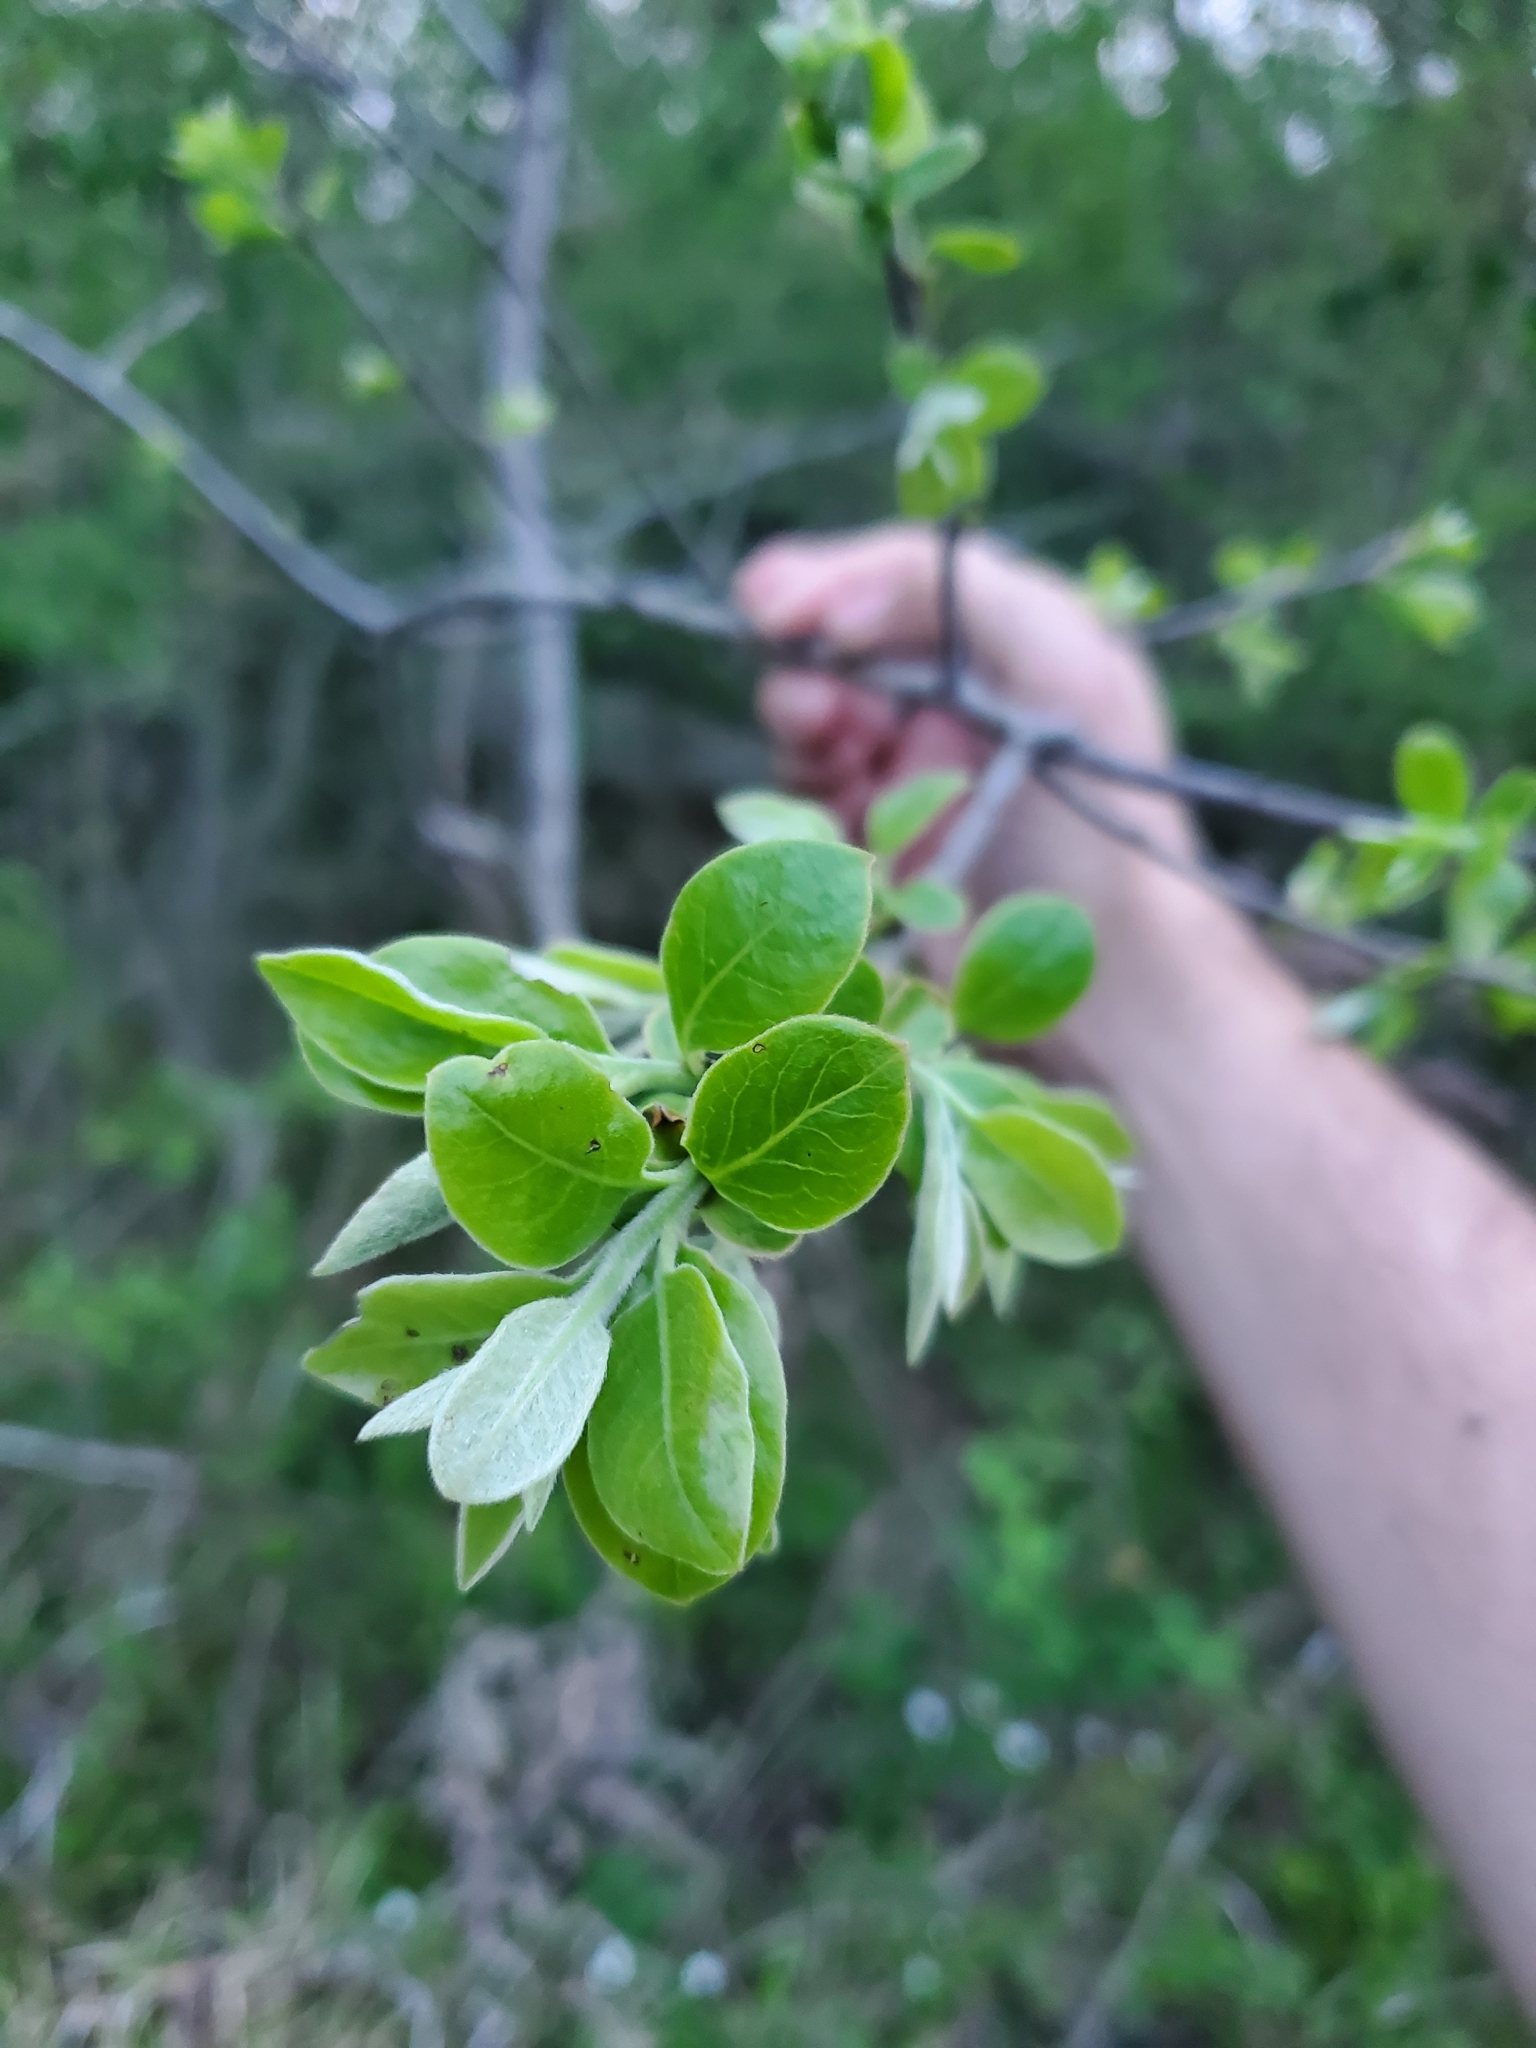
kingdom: Plantae
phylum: Tracheophyta
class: Magnoliopsida
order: Ericales
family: Ebenaceae
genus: Diospyros
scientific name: Diospyros virginiana
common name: Persimmon
